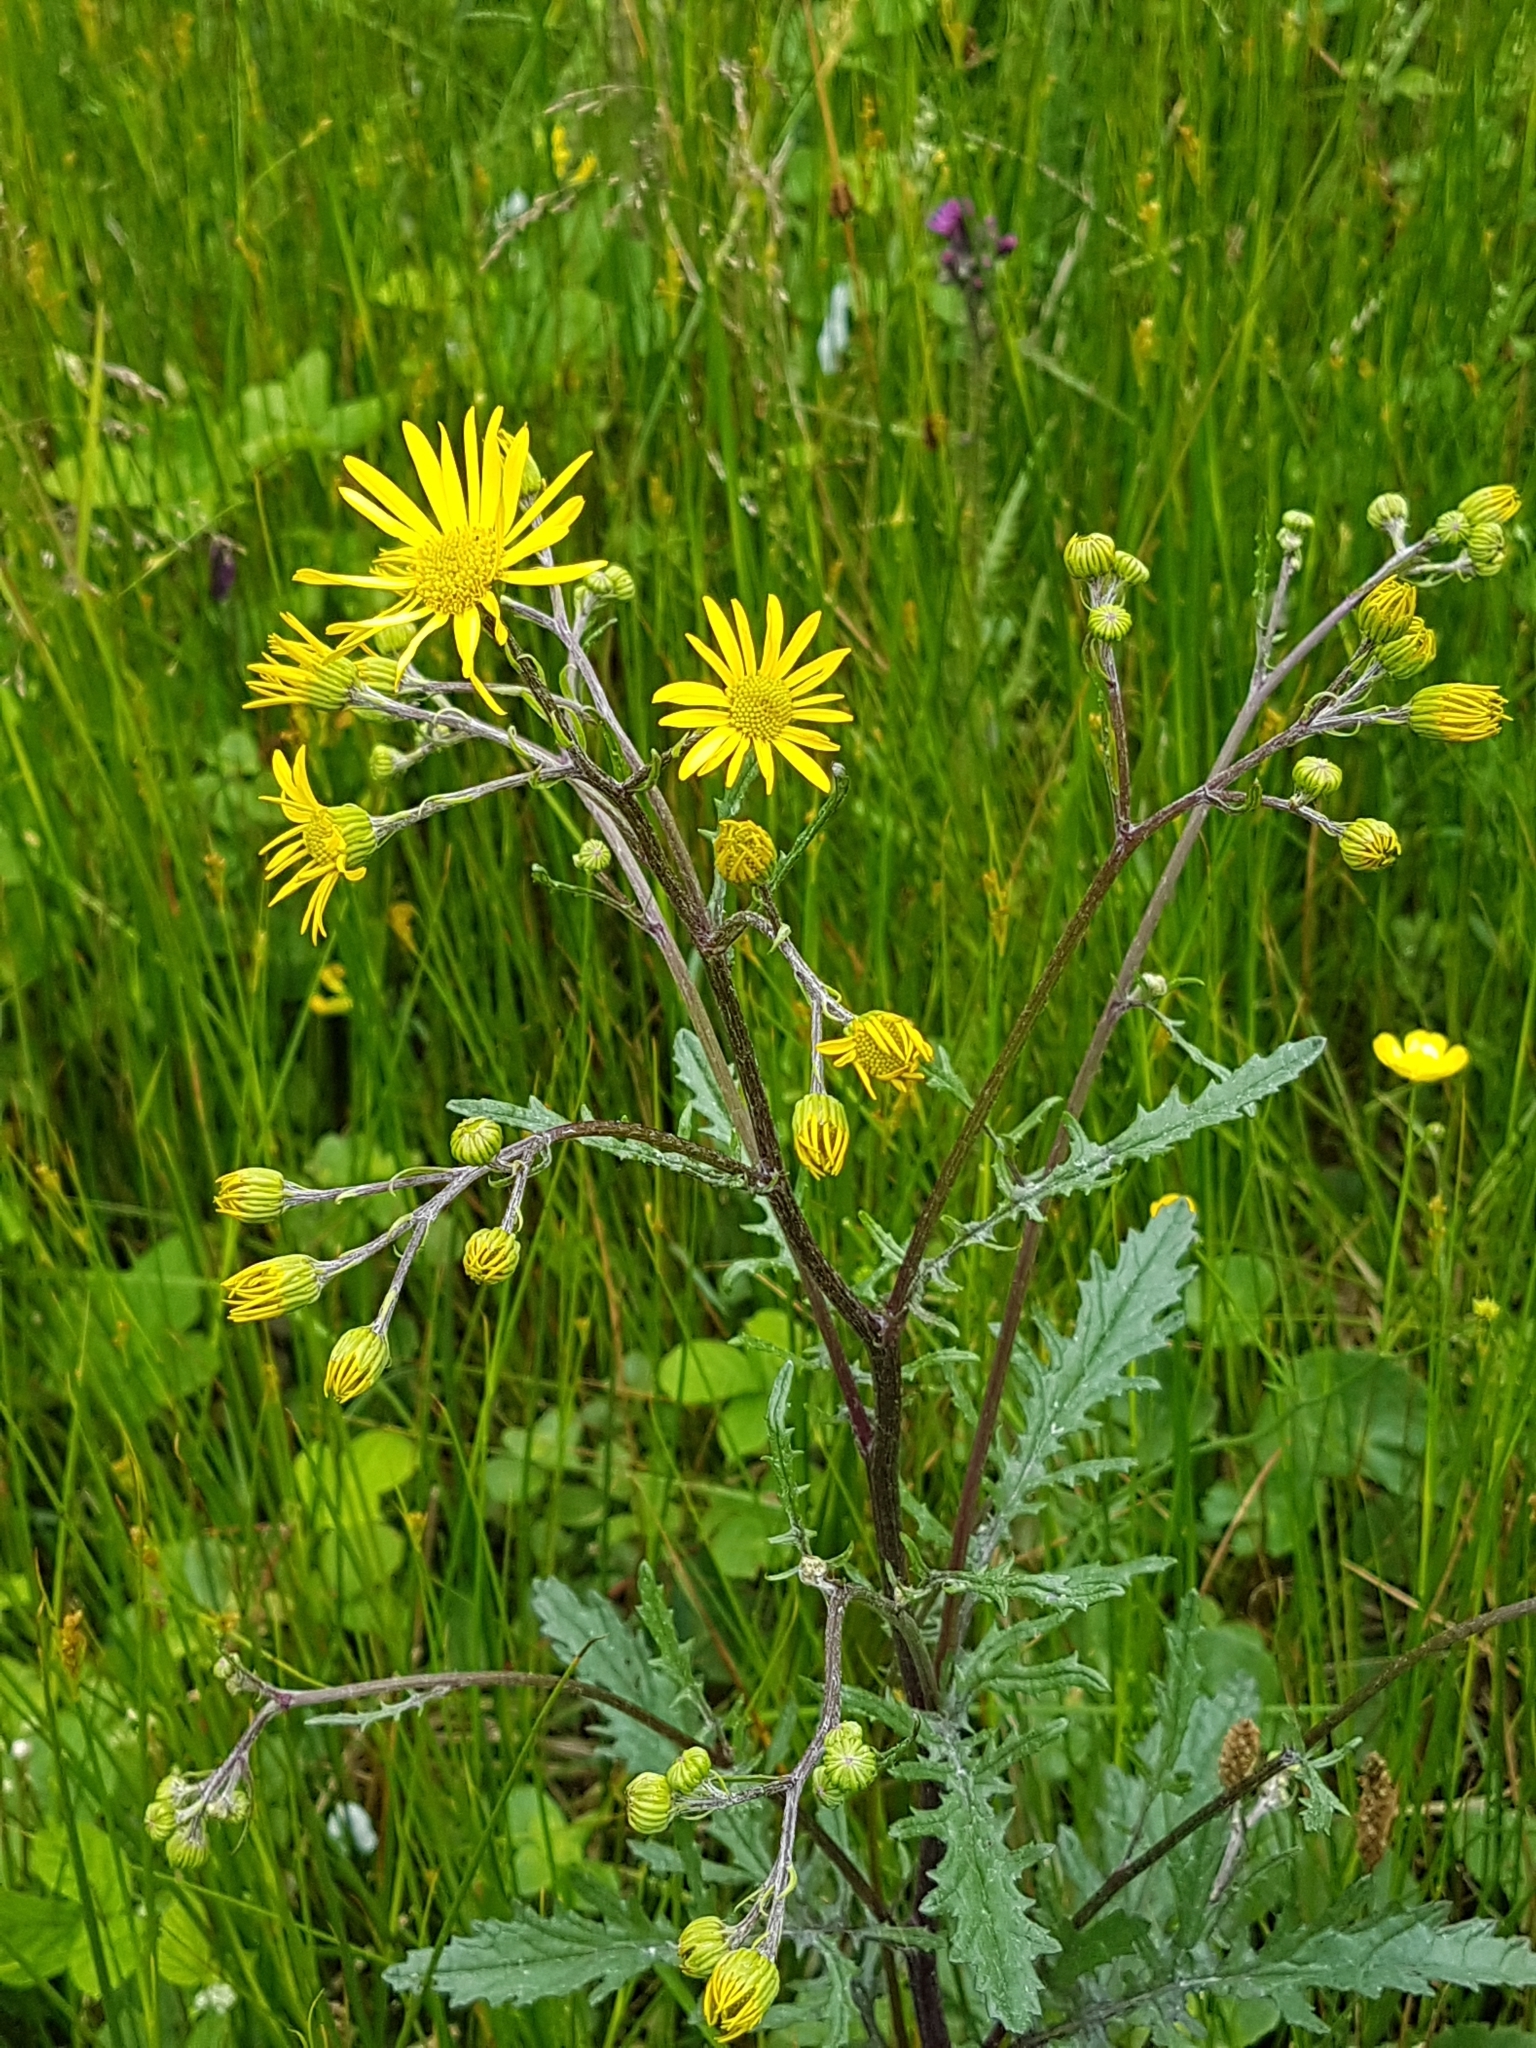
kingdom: Plantae
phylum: Tracheophyta
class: Magnoliopsida
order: Asterales
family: Asteraceae
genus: Jacobaea
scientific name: Jacobaea aquatica
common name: Water ragwort
